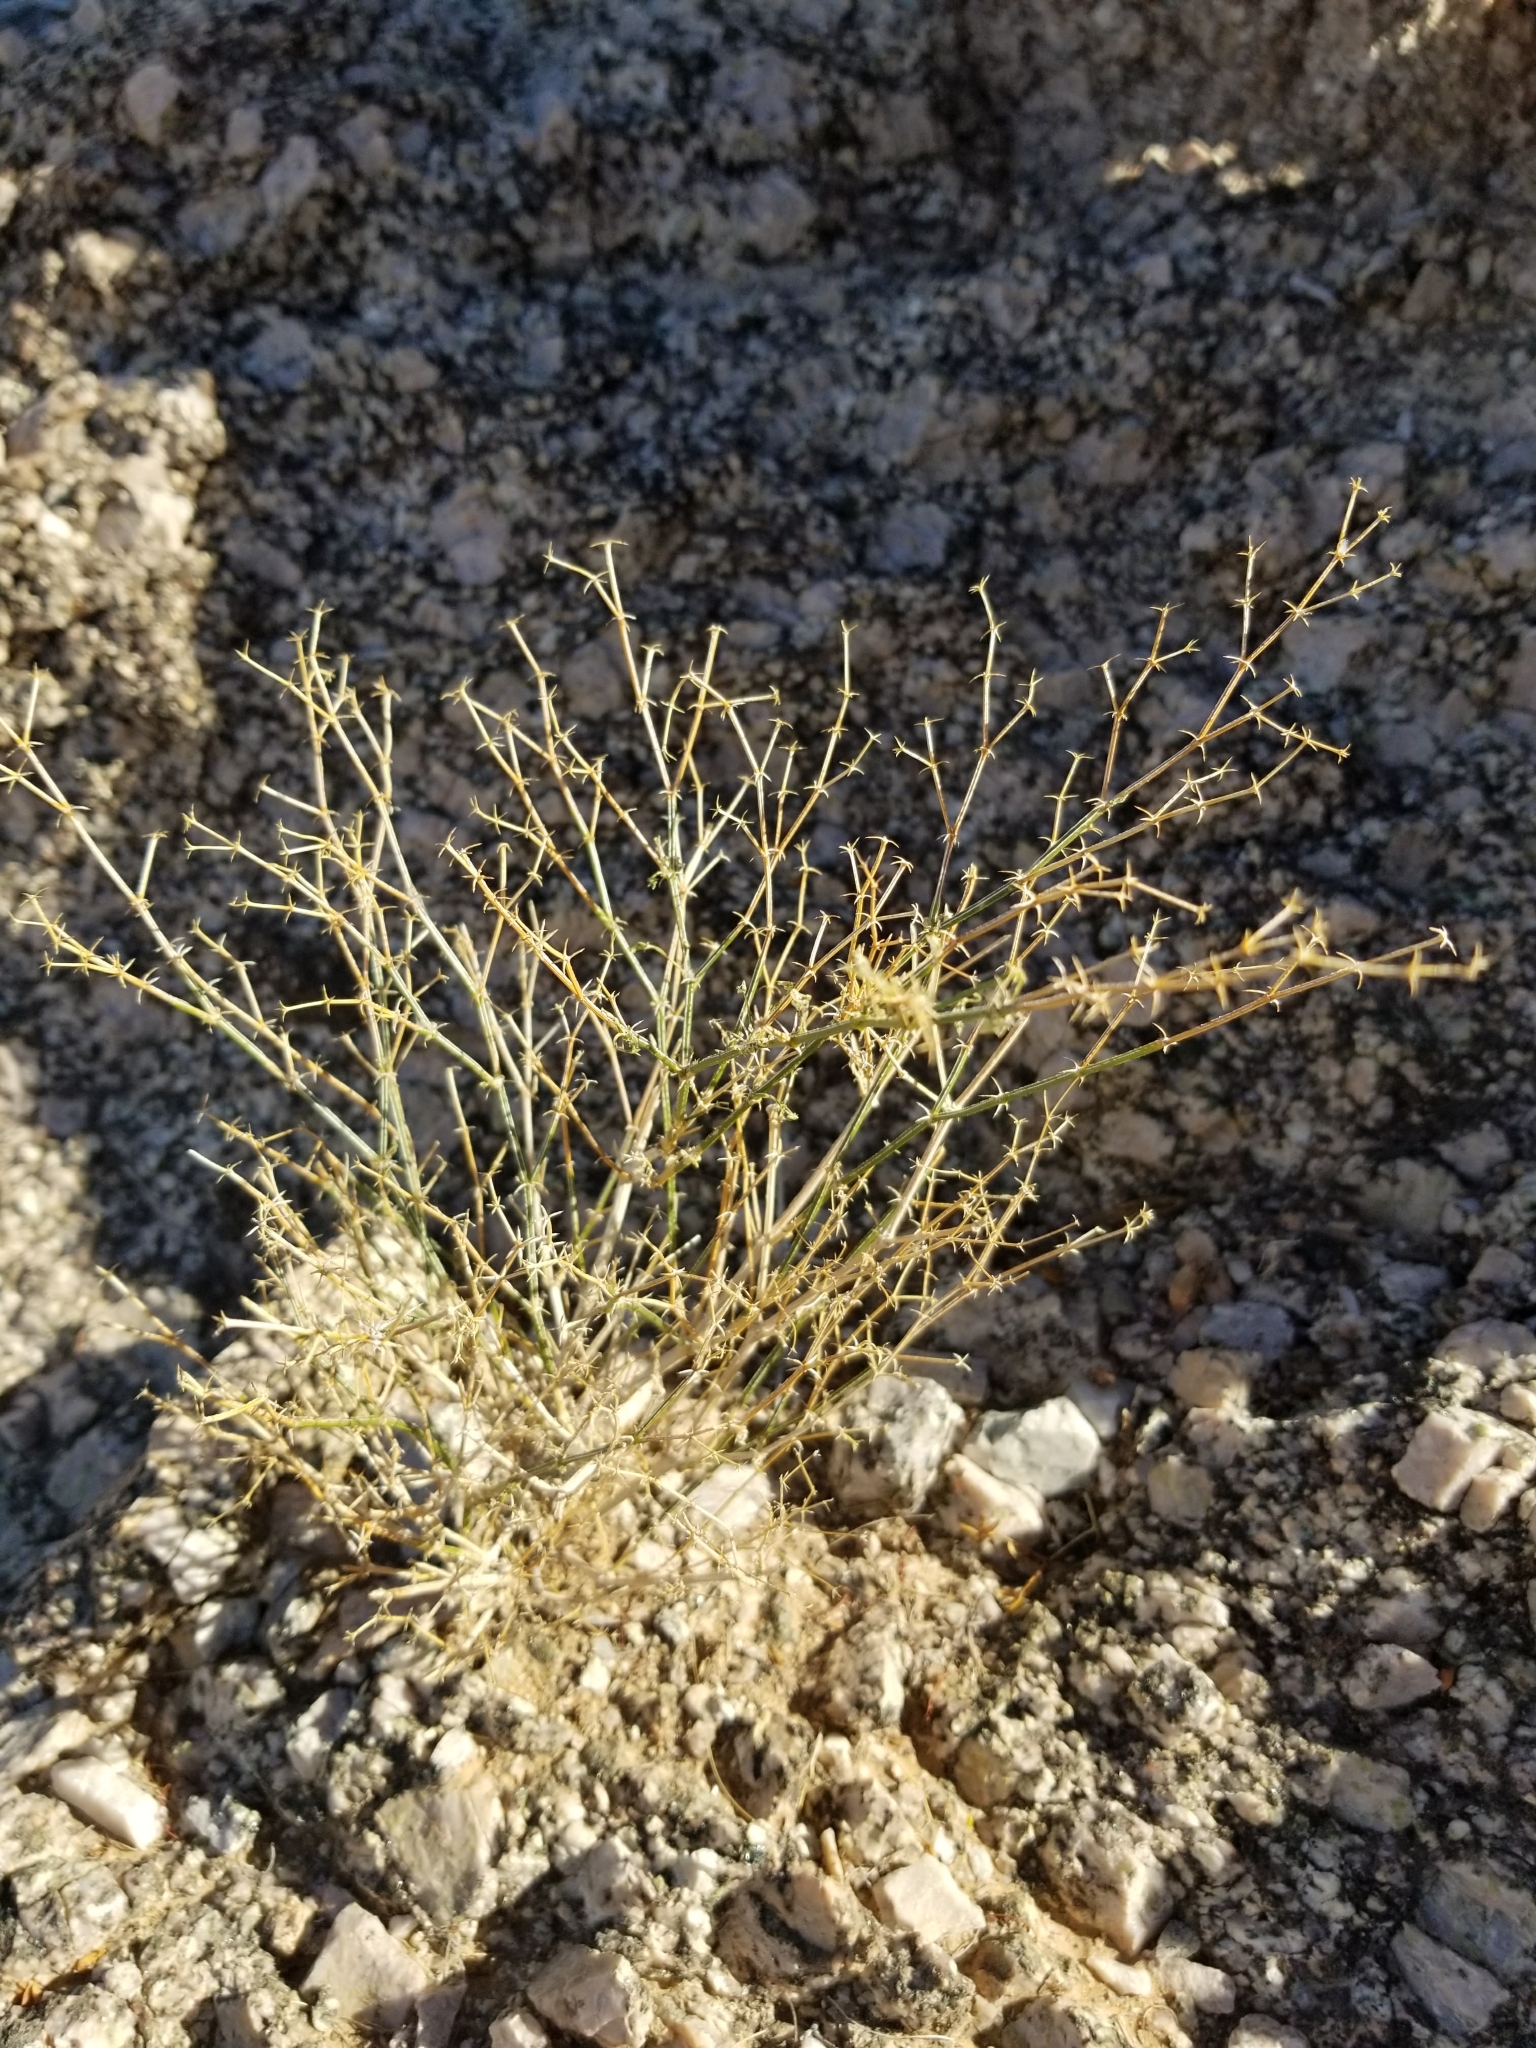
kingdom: Plantae
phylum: Tracheophyta
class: Magnoliopsida
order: Gentianales
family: Rubiaceae
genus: Galium
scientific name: Galium stellatum
